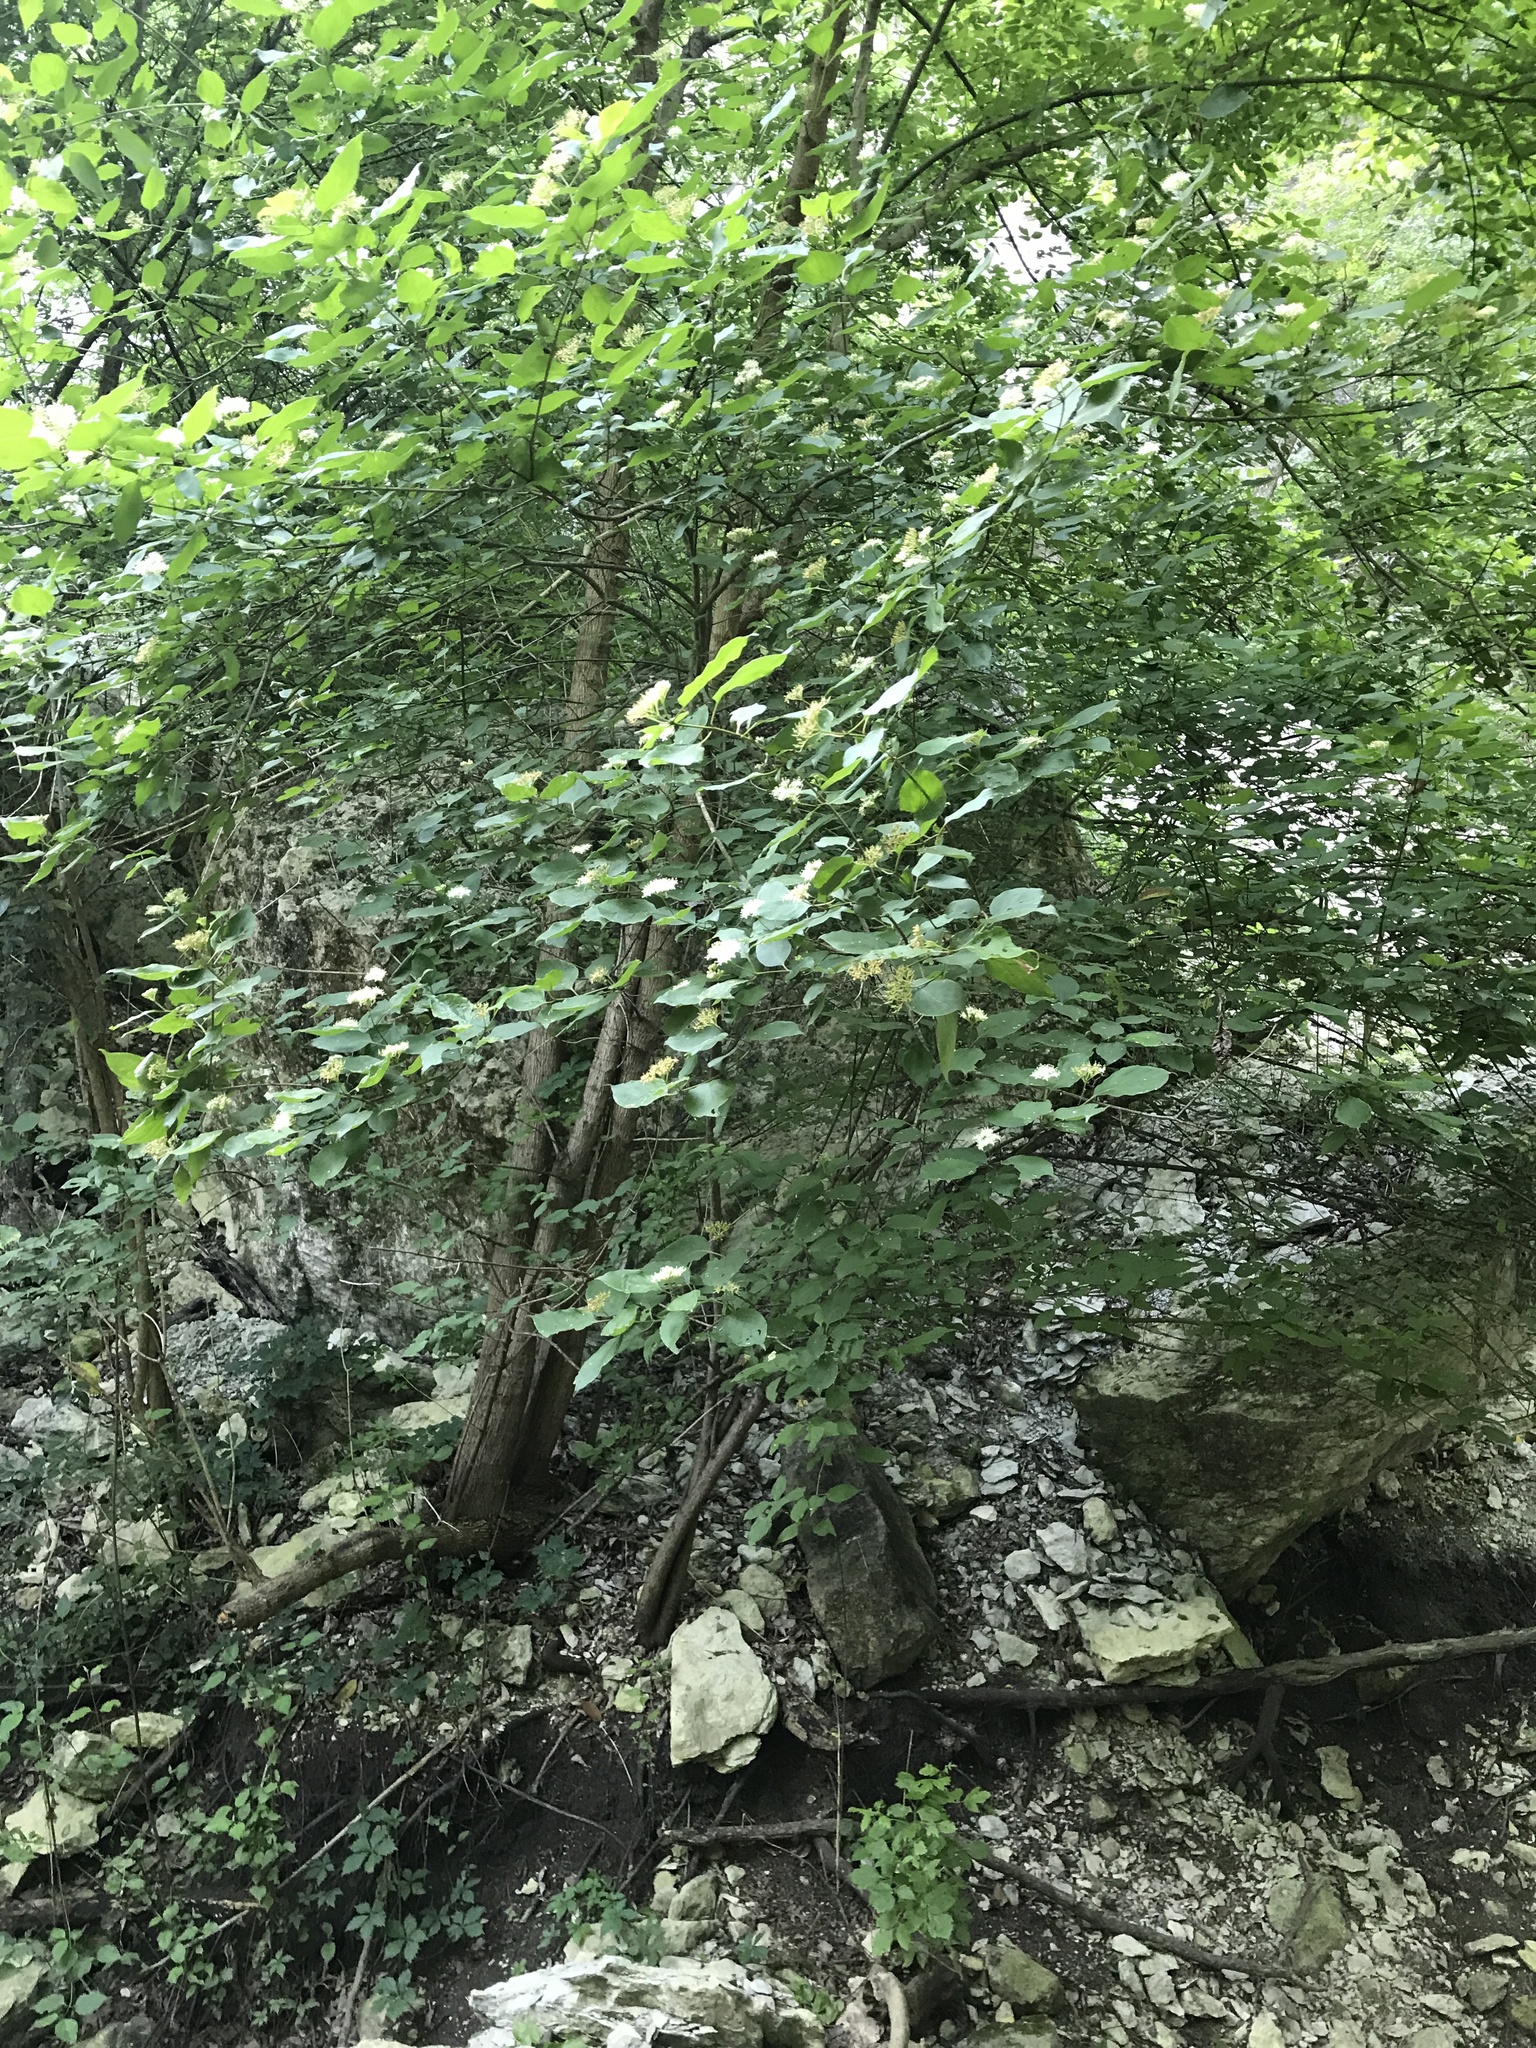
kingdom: Plantae
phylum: Tracheophyta
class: Magnoliopsida
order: Cornales
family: Cornaceae
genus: Cornus
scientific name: Cornus drummondii
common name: Rough-leaf dogwood
